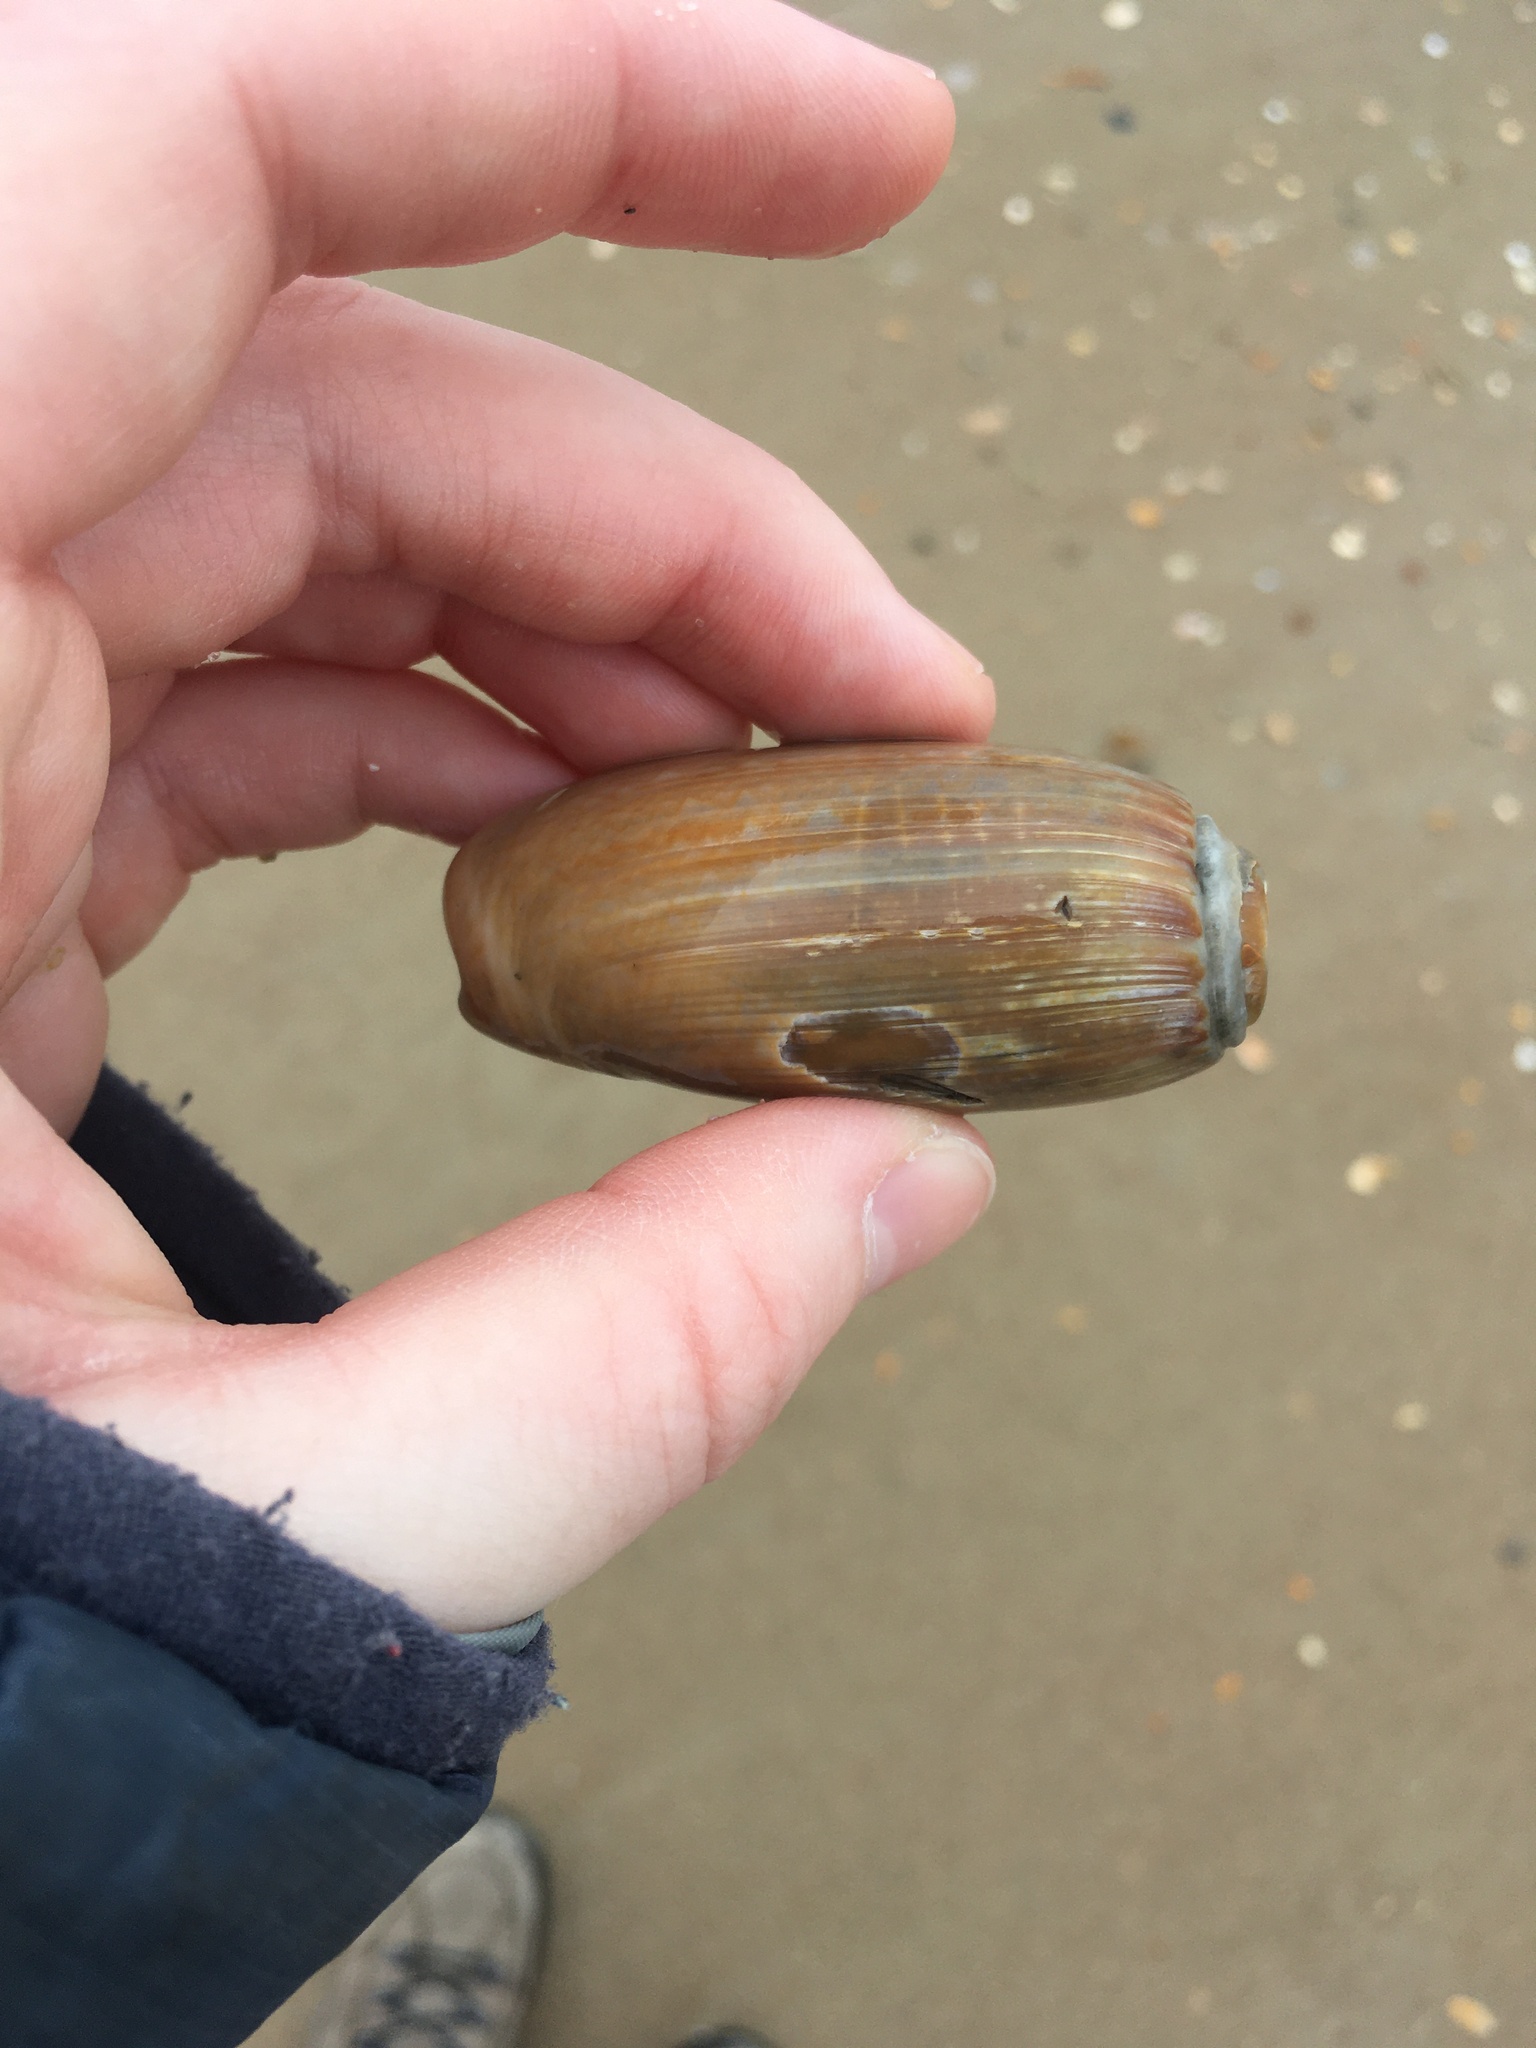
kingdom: Animalia
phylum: Mollusca
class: Gastropoda
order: Neogastropoda
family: Olividae
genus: Oliva
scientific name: Oliva sayana
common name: Lettered olive
